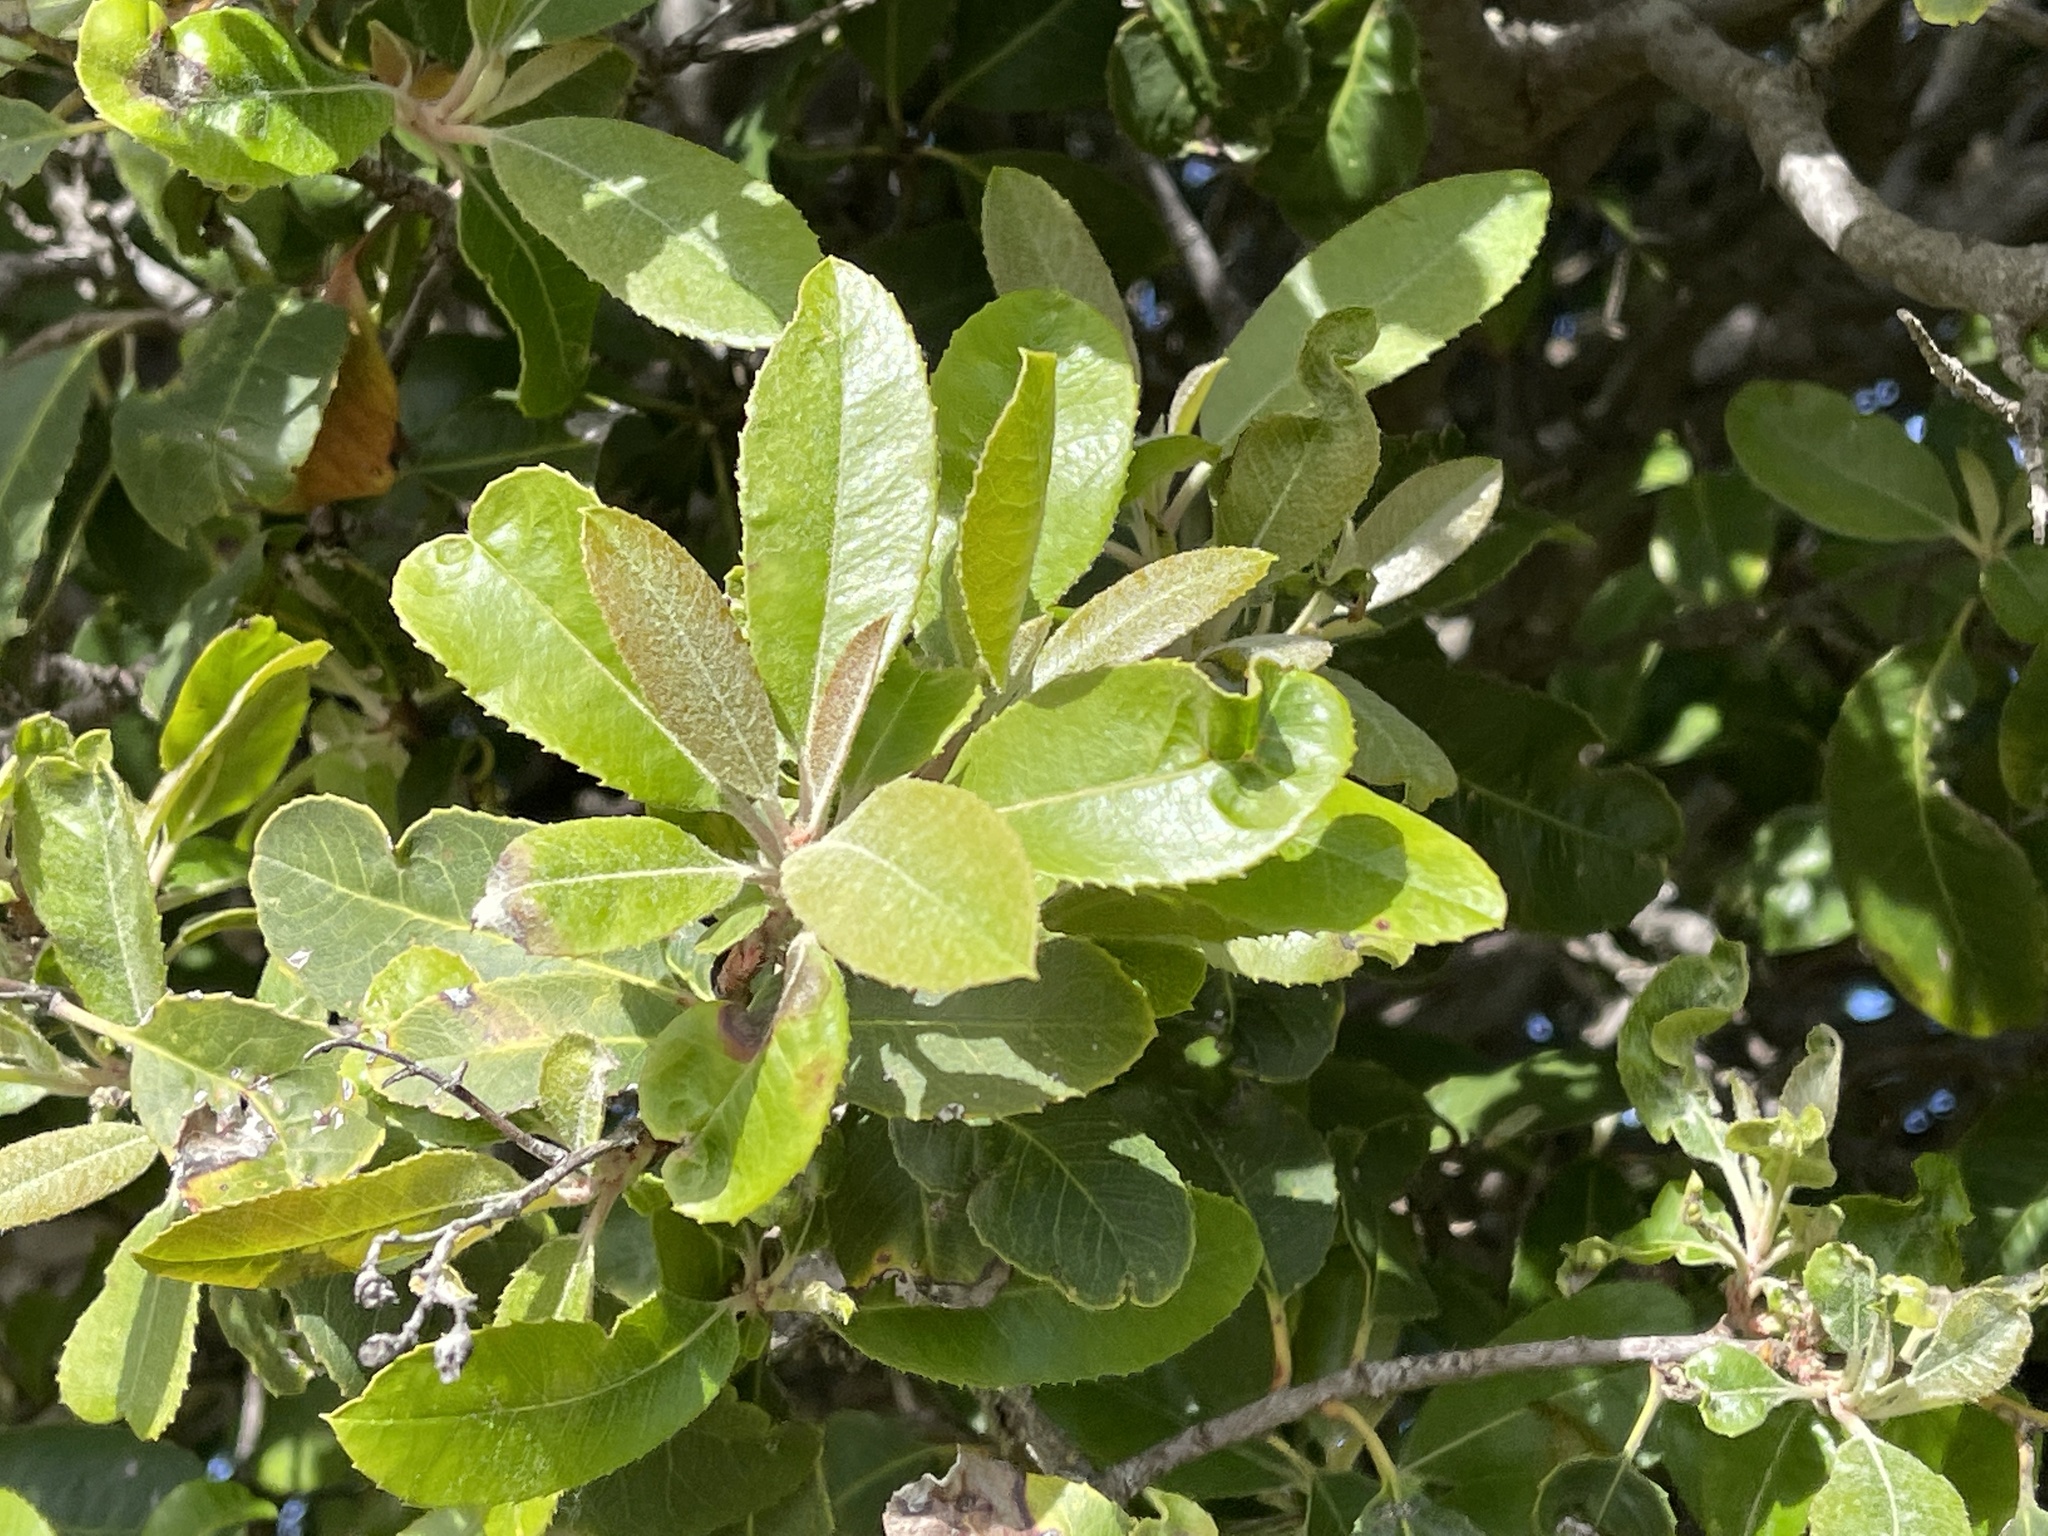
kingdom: Plantae
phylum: Tracheophyta
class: Magnoliopsida
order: Rosales
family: Rosaceae
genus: Heteromeles
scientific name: Heteromeles arbutifolia
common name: California-holly
